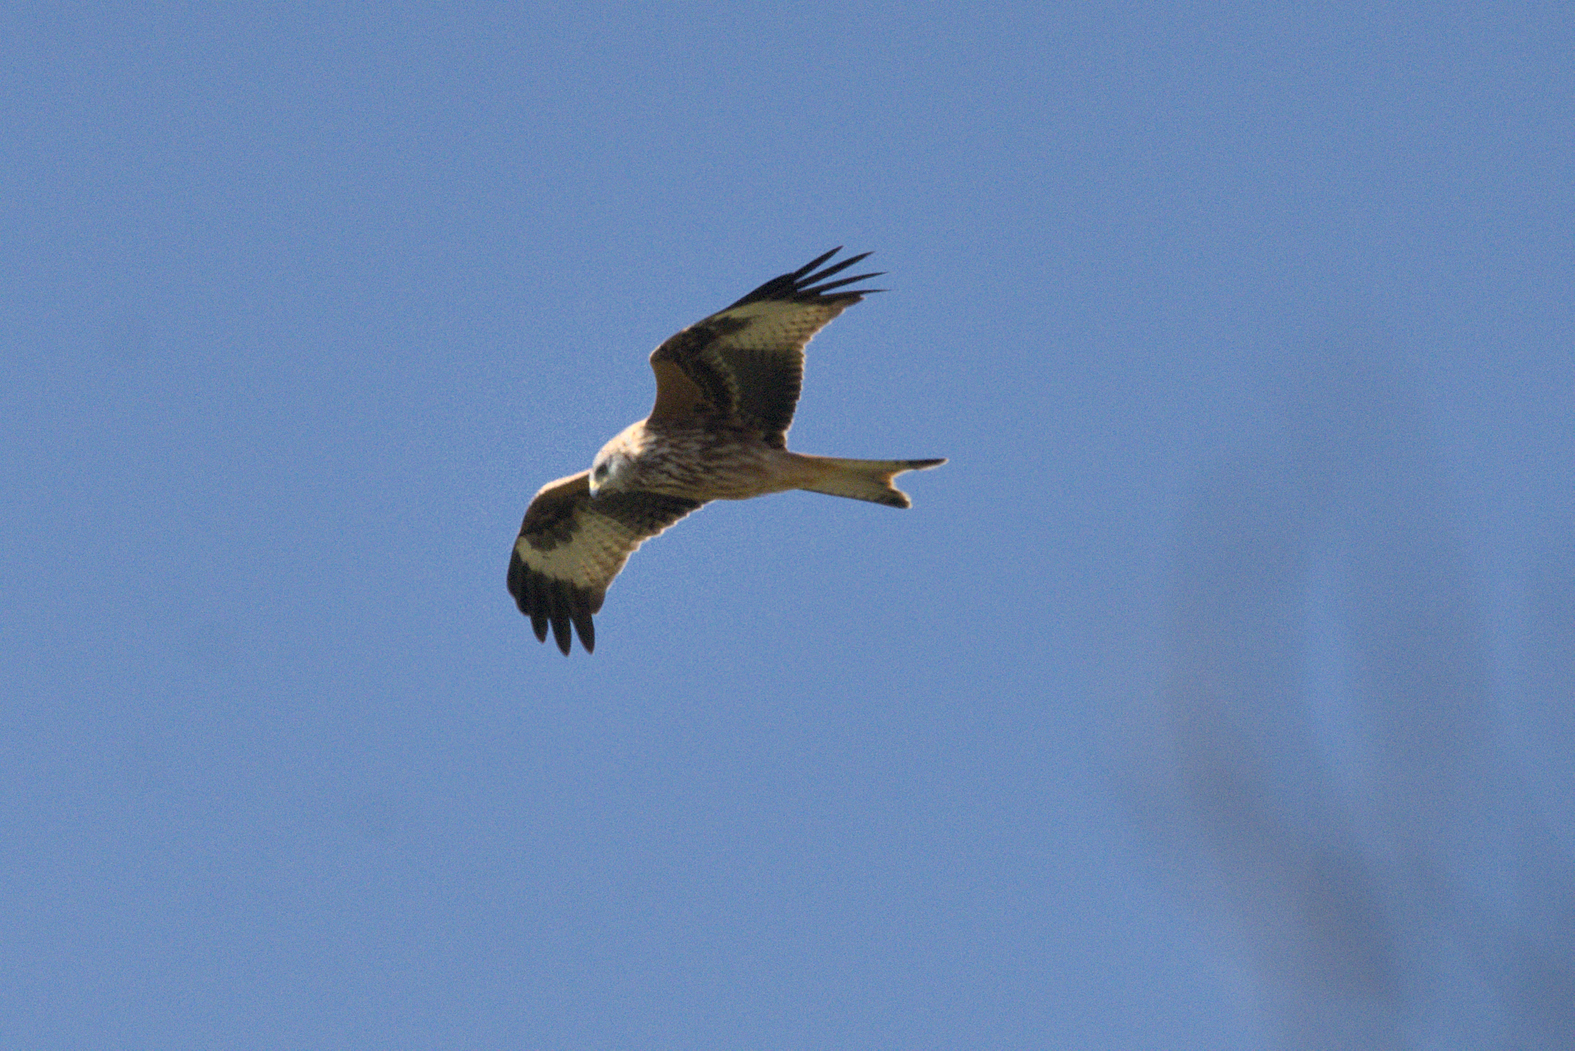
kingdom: Animalia
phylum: Chordata
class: Aves
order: Accipitriformes
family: Accipitridae
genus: Milvus
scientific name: Milvus milvus
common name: Red kite
